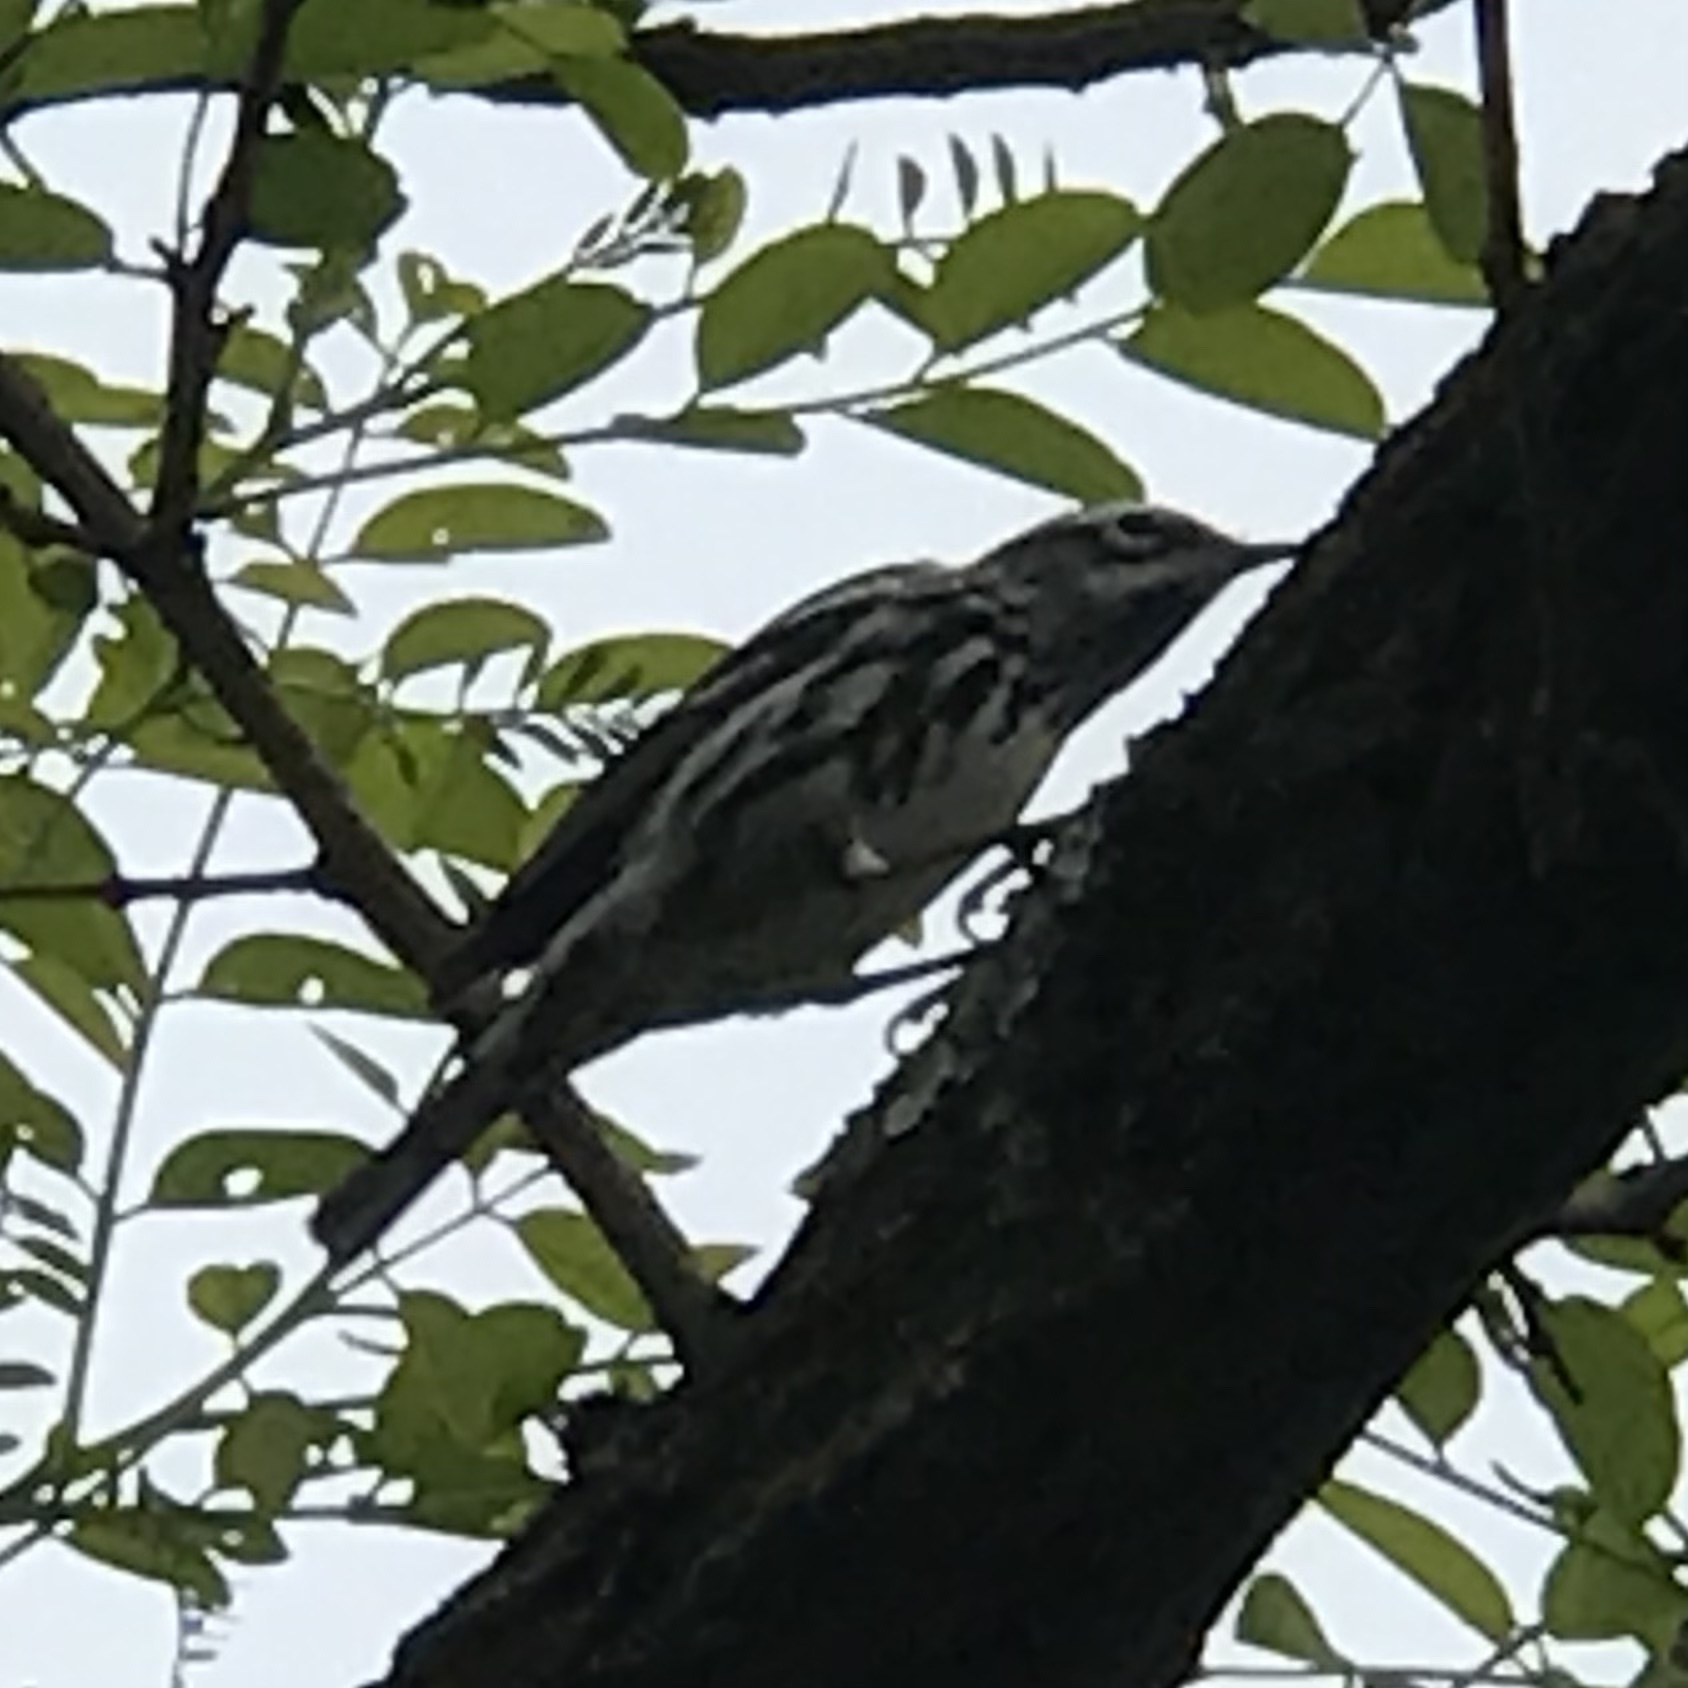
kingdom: Animalia
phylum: Chordata
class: Aves
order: Passeriformes
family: Parulidae
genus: Mniotilta
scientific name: Mniotilta varia
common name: Black-and-white warbler
